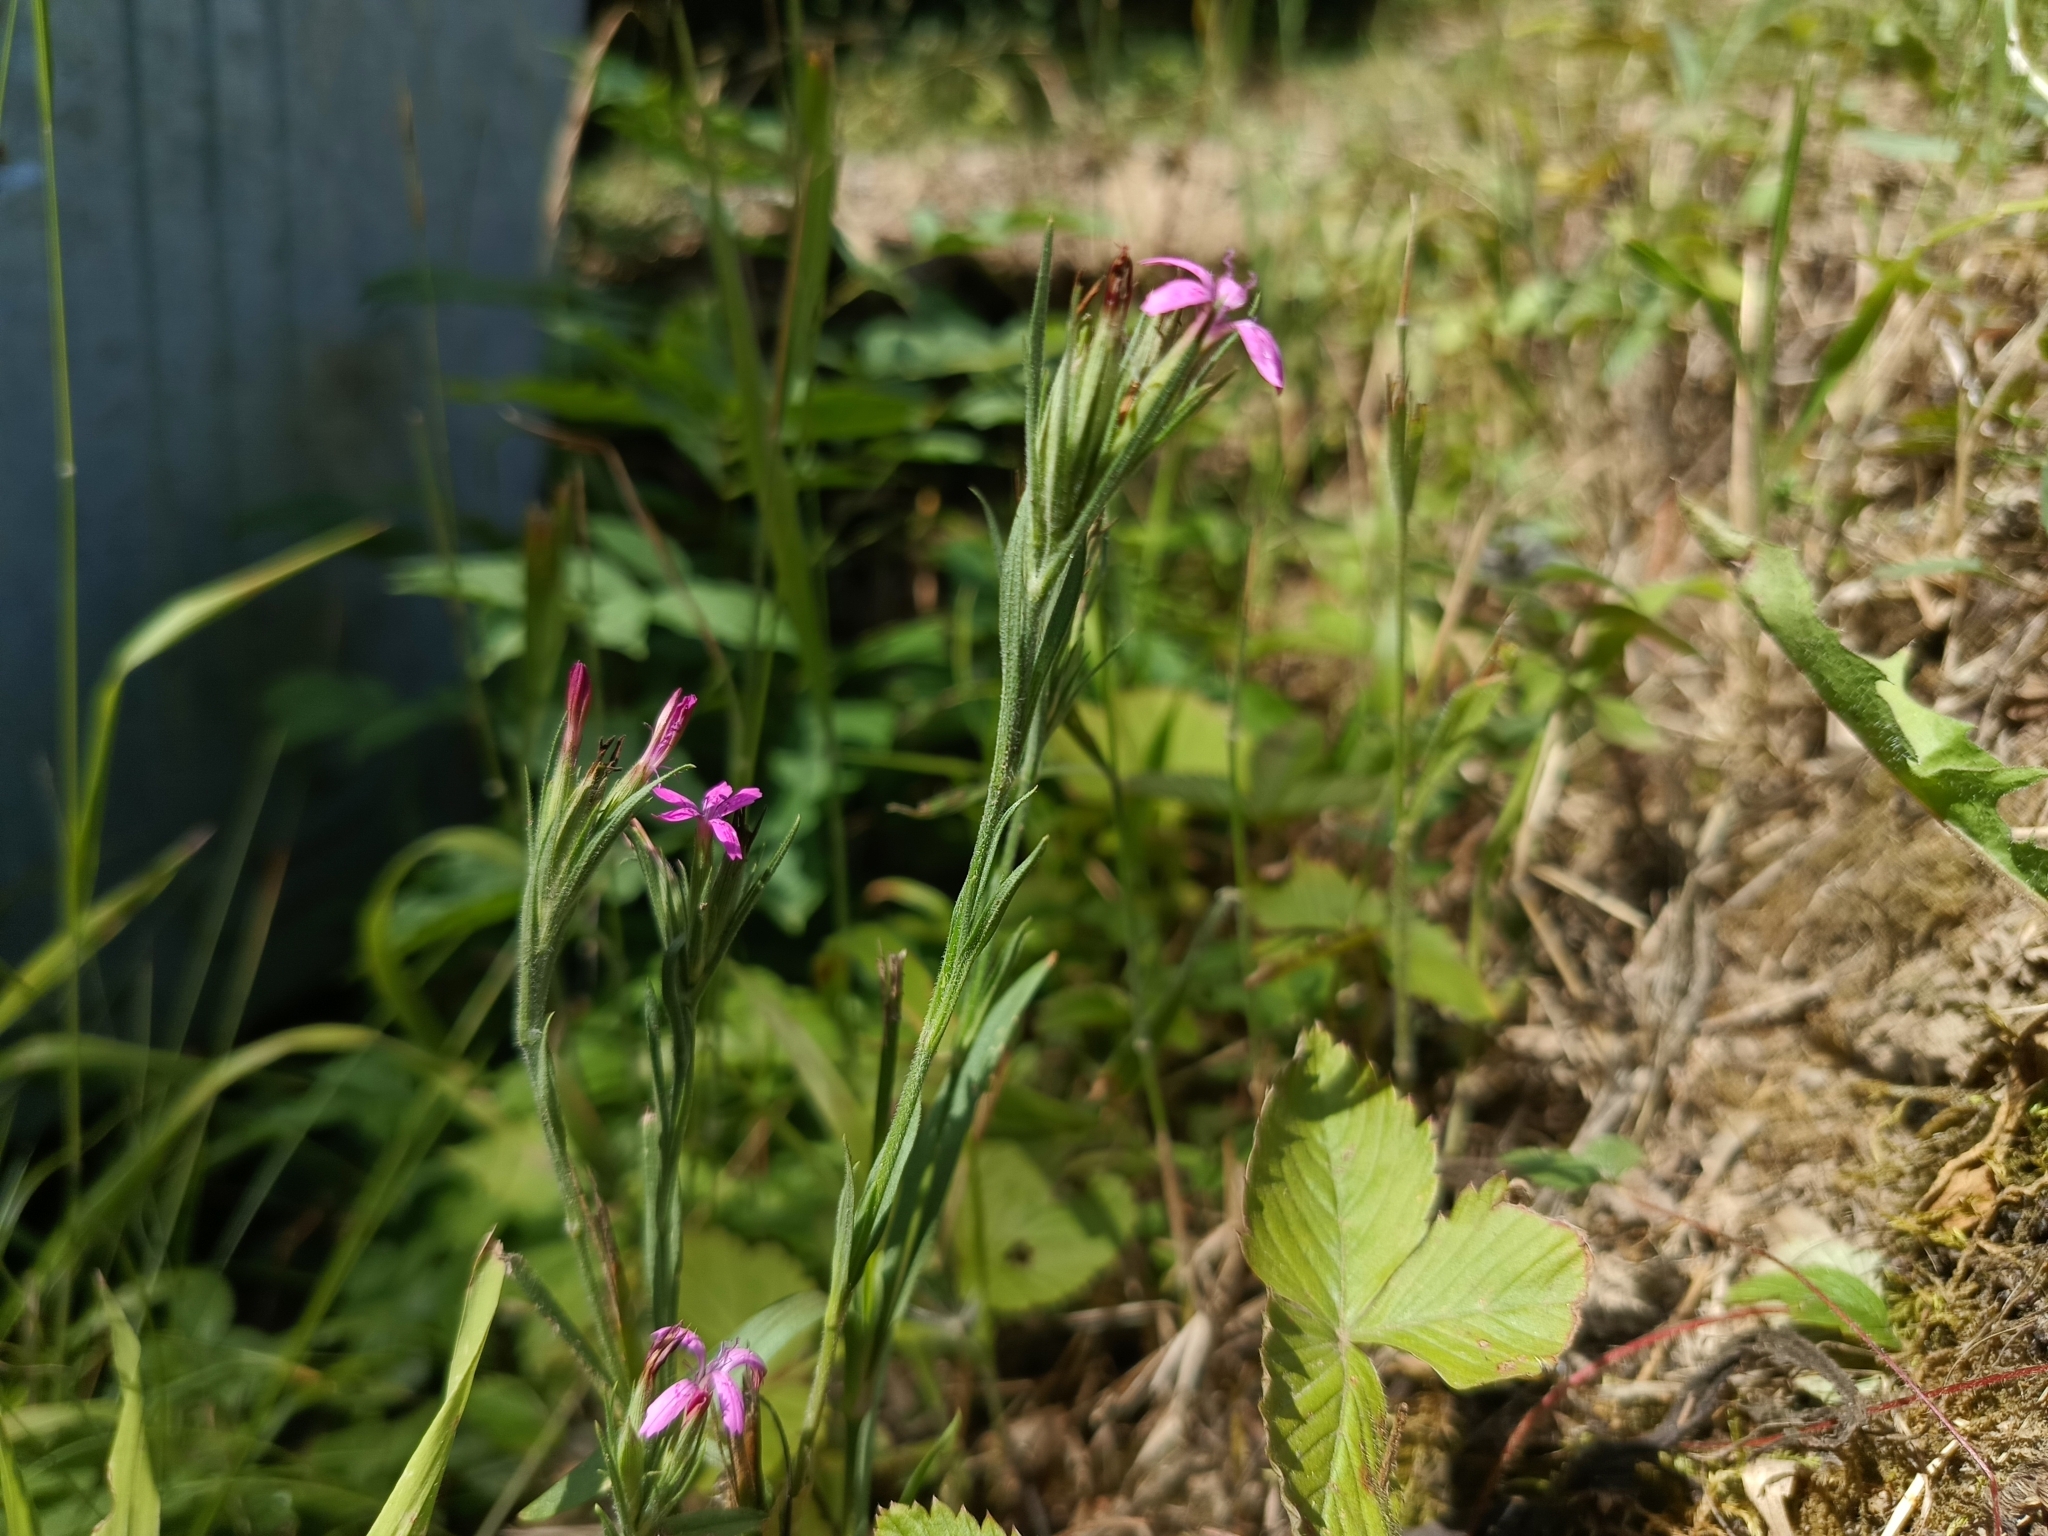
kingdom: Plantae
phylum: Tracheophyta
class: Magnoliopsida
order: Caryophyllales
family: Caryophyllaceae
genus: Dianthus
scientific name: Dianthus armeria
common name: Deptford pink
